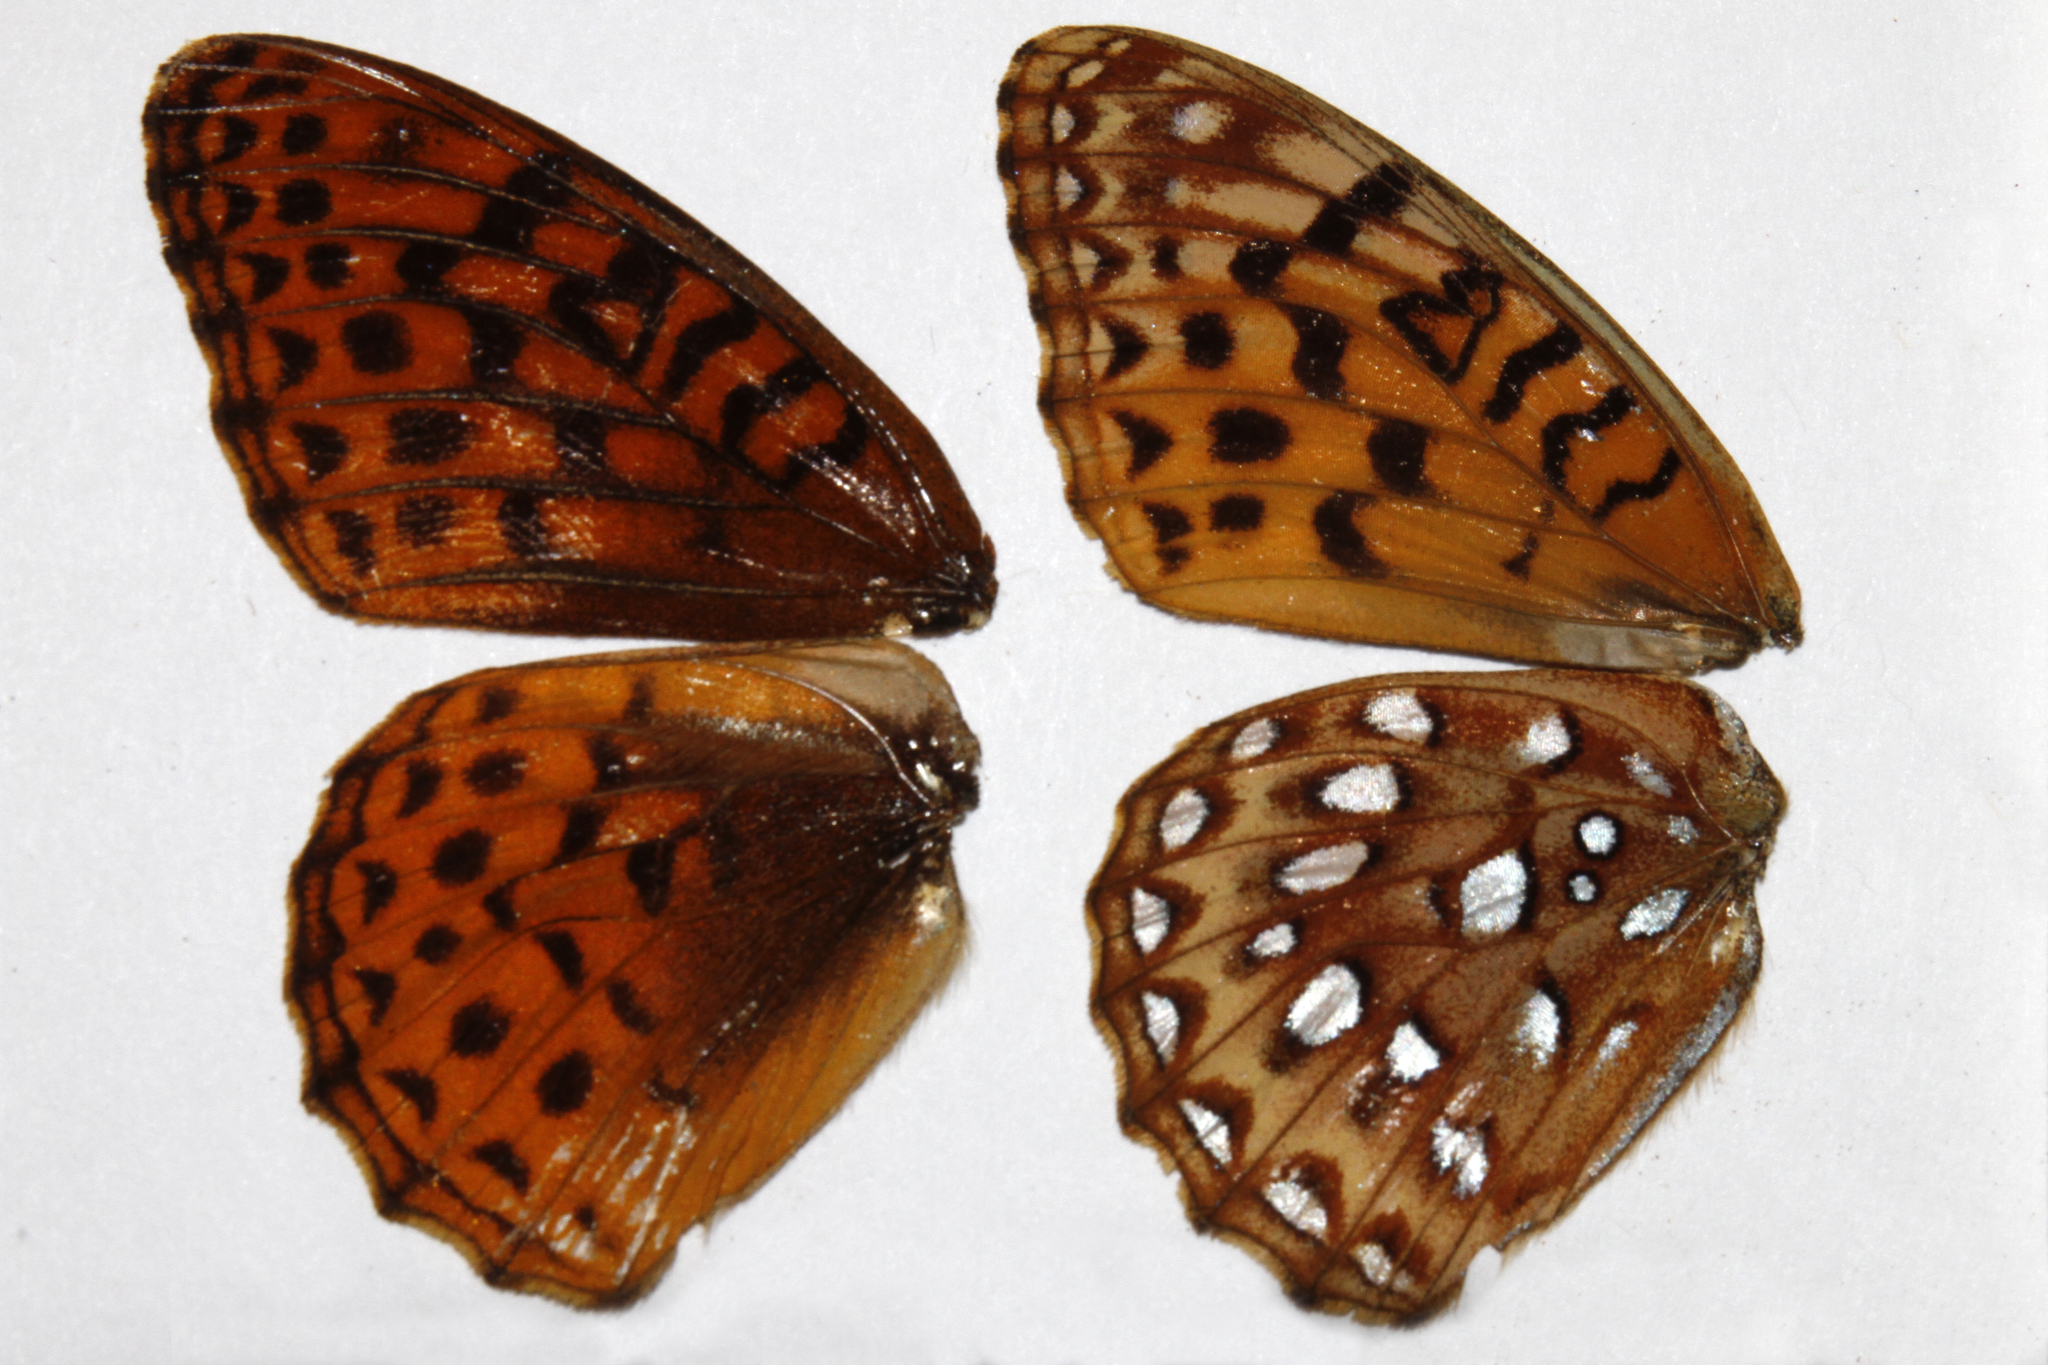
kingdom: Animalia
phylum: Arthropoda
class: Insecta
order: Lepidoptera
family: Nymphalidae
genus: Speyeria
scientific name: Speyeria atlantis
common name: Atlantis fritillary
